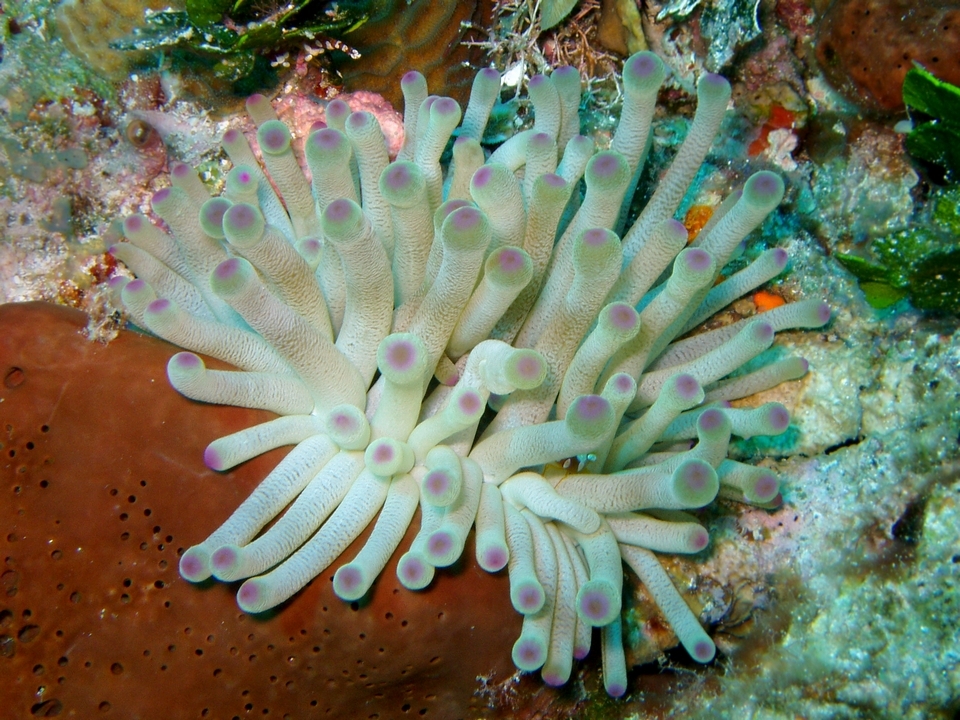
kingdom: Animalia
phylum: Cnidaria
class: Anthozoa
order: Actiniaria
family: Actiniidae
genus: Condylactis
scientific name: Condylactis gigantea
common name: Giant caribbean anemone
